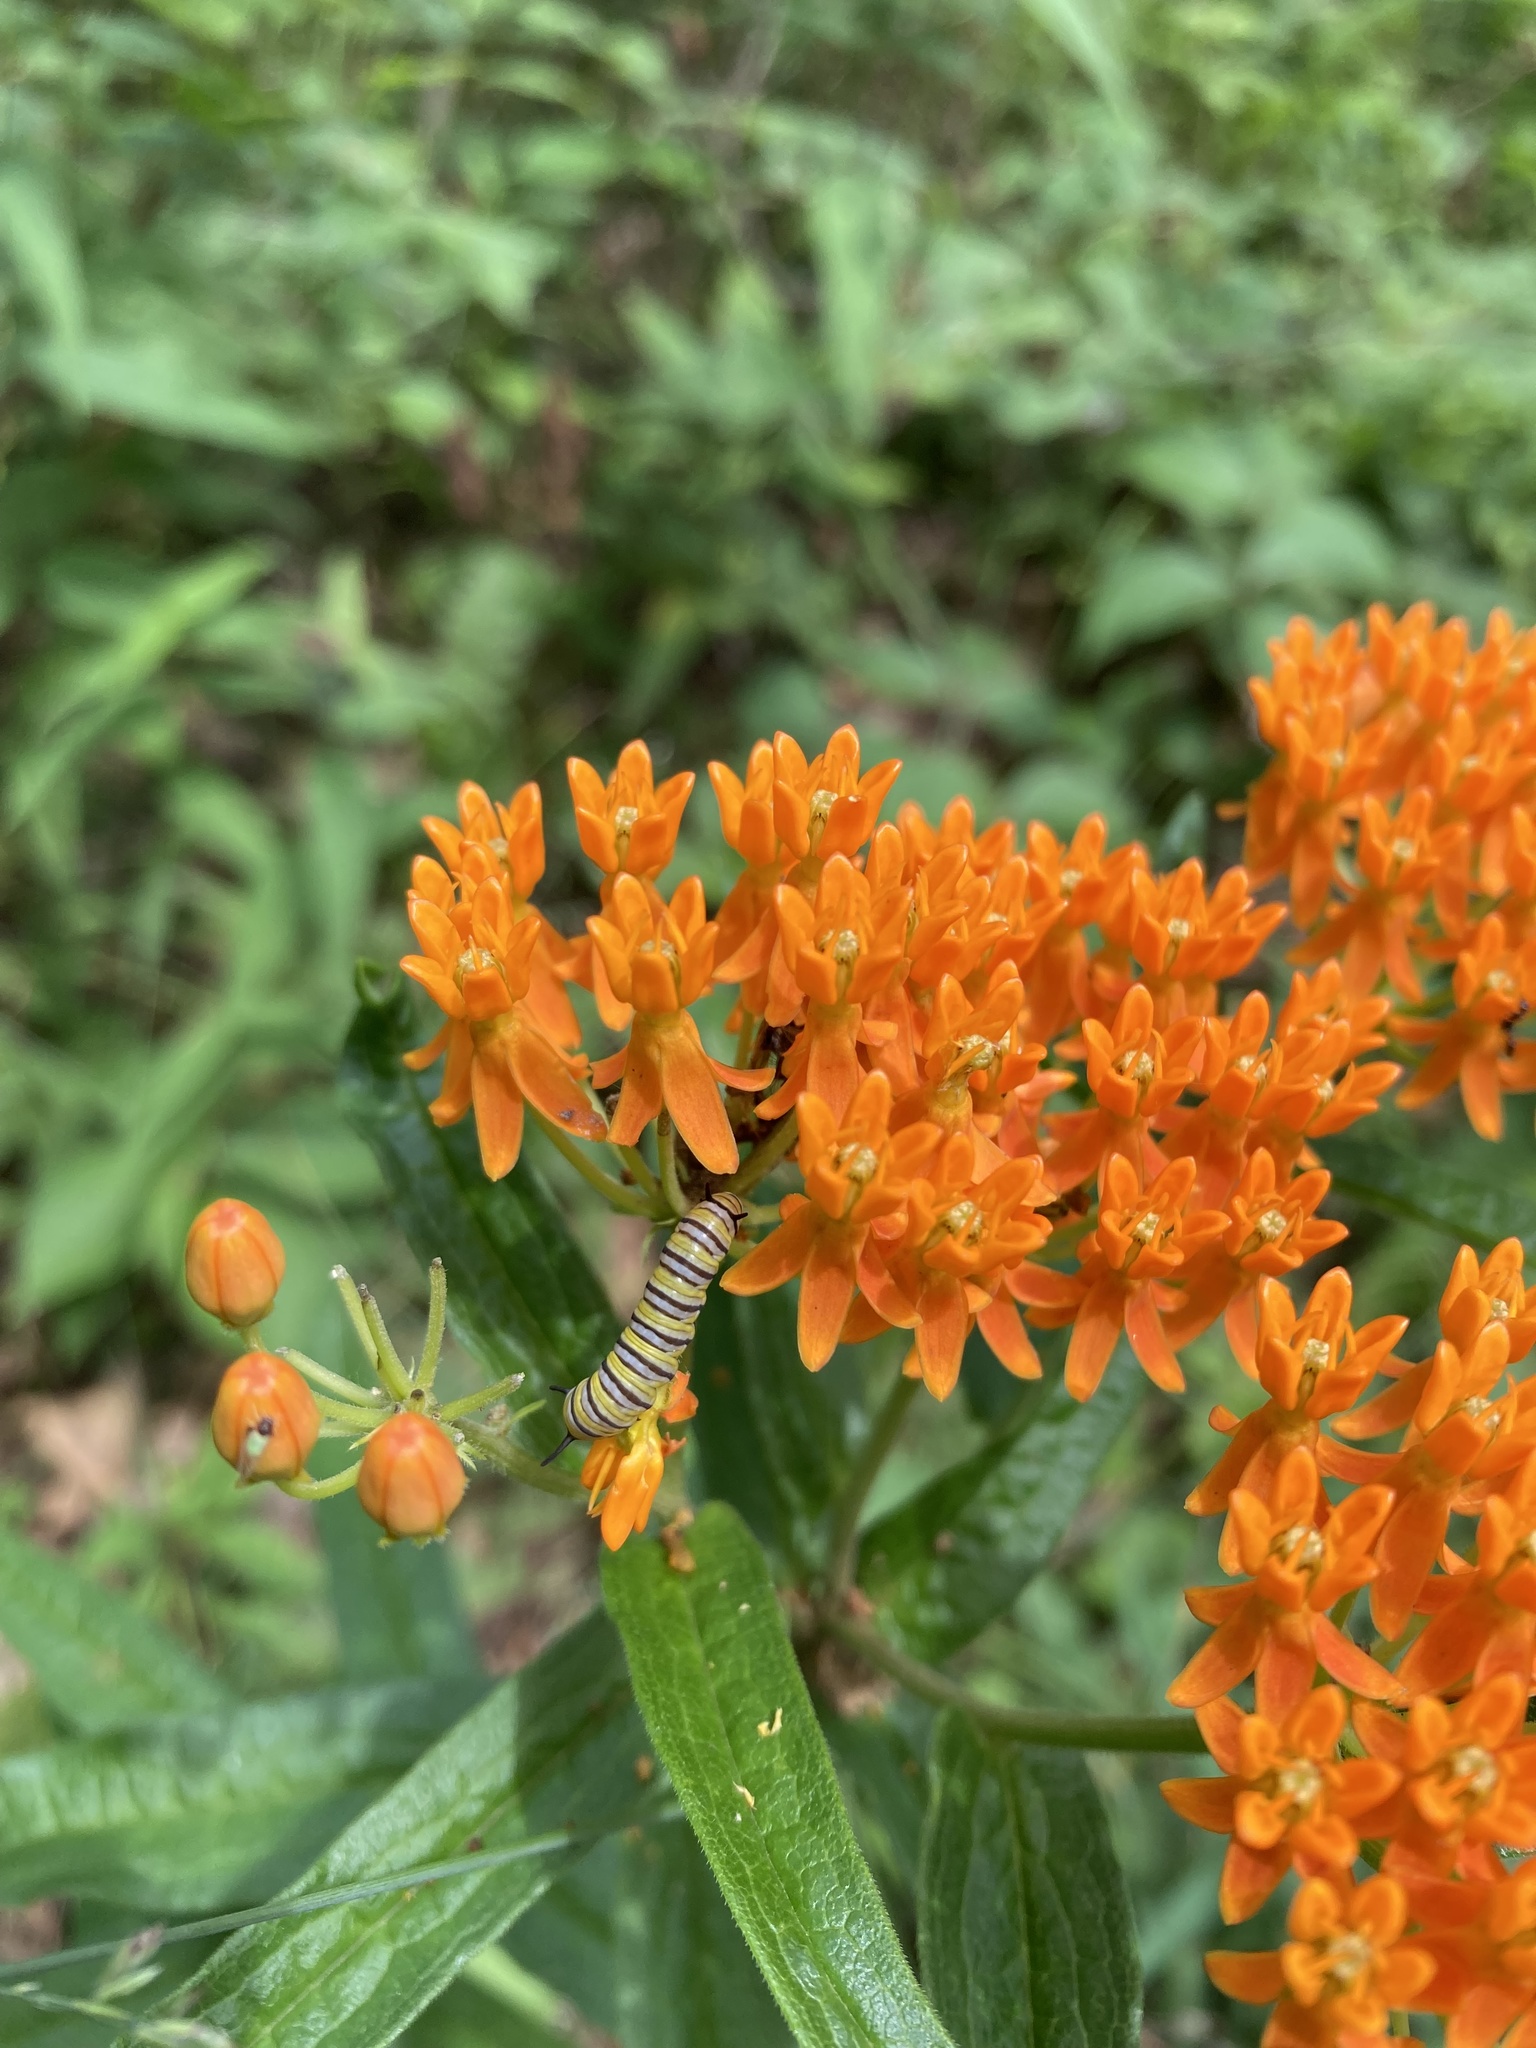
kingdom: Animalia
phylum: Arthropoda
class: Insecta
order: Lepidoptera
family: Nymphalidae
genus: Danaus
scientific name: Danaus plexippus
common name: Monarch
